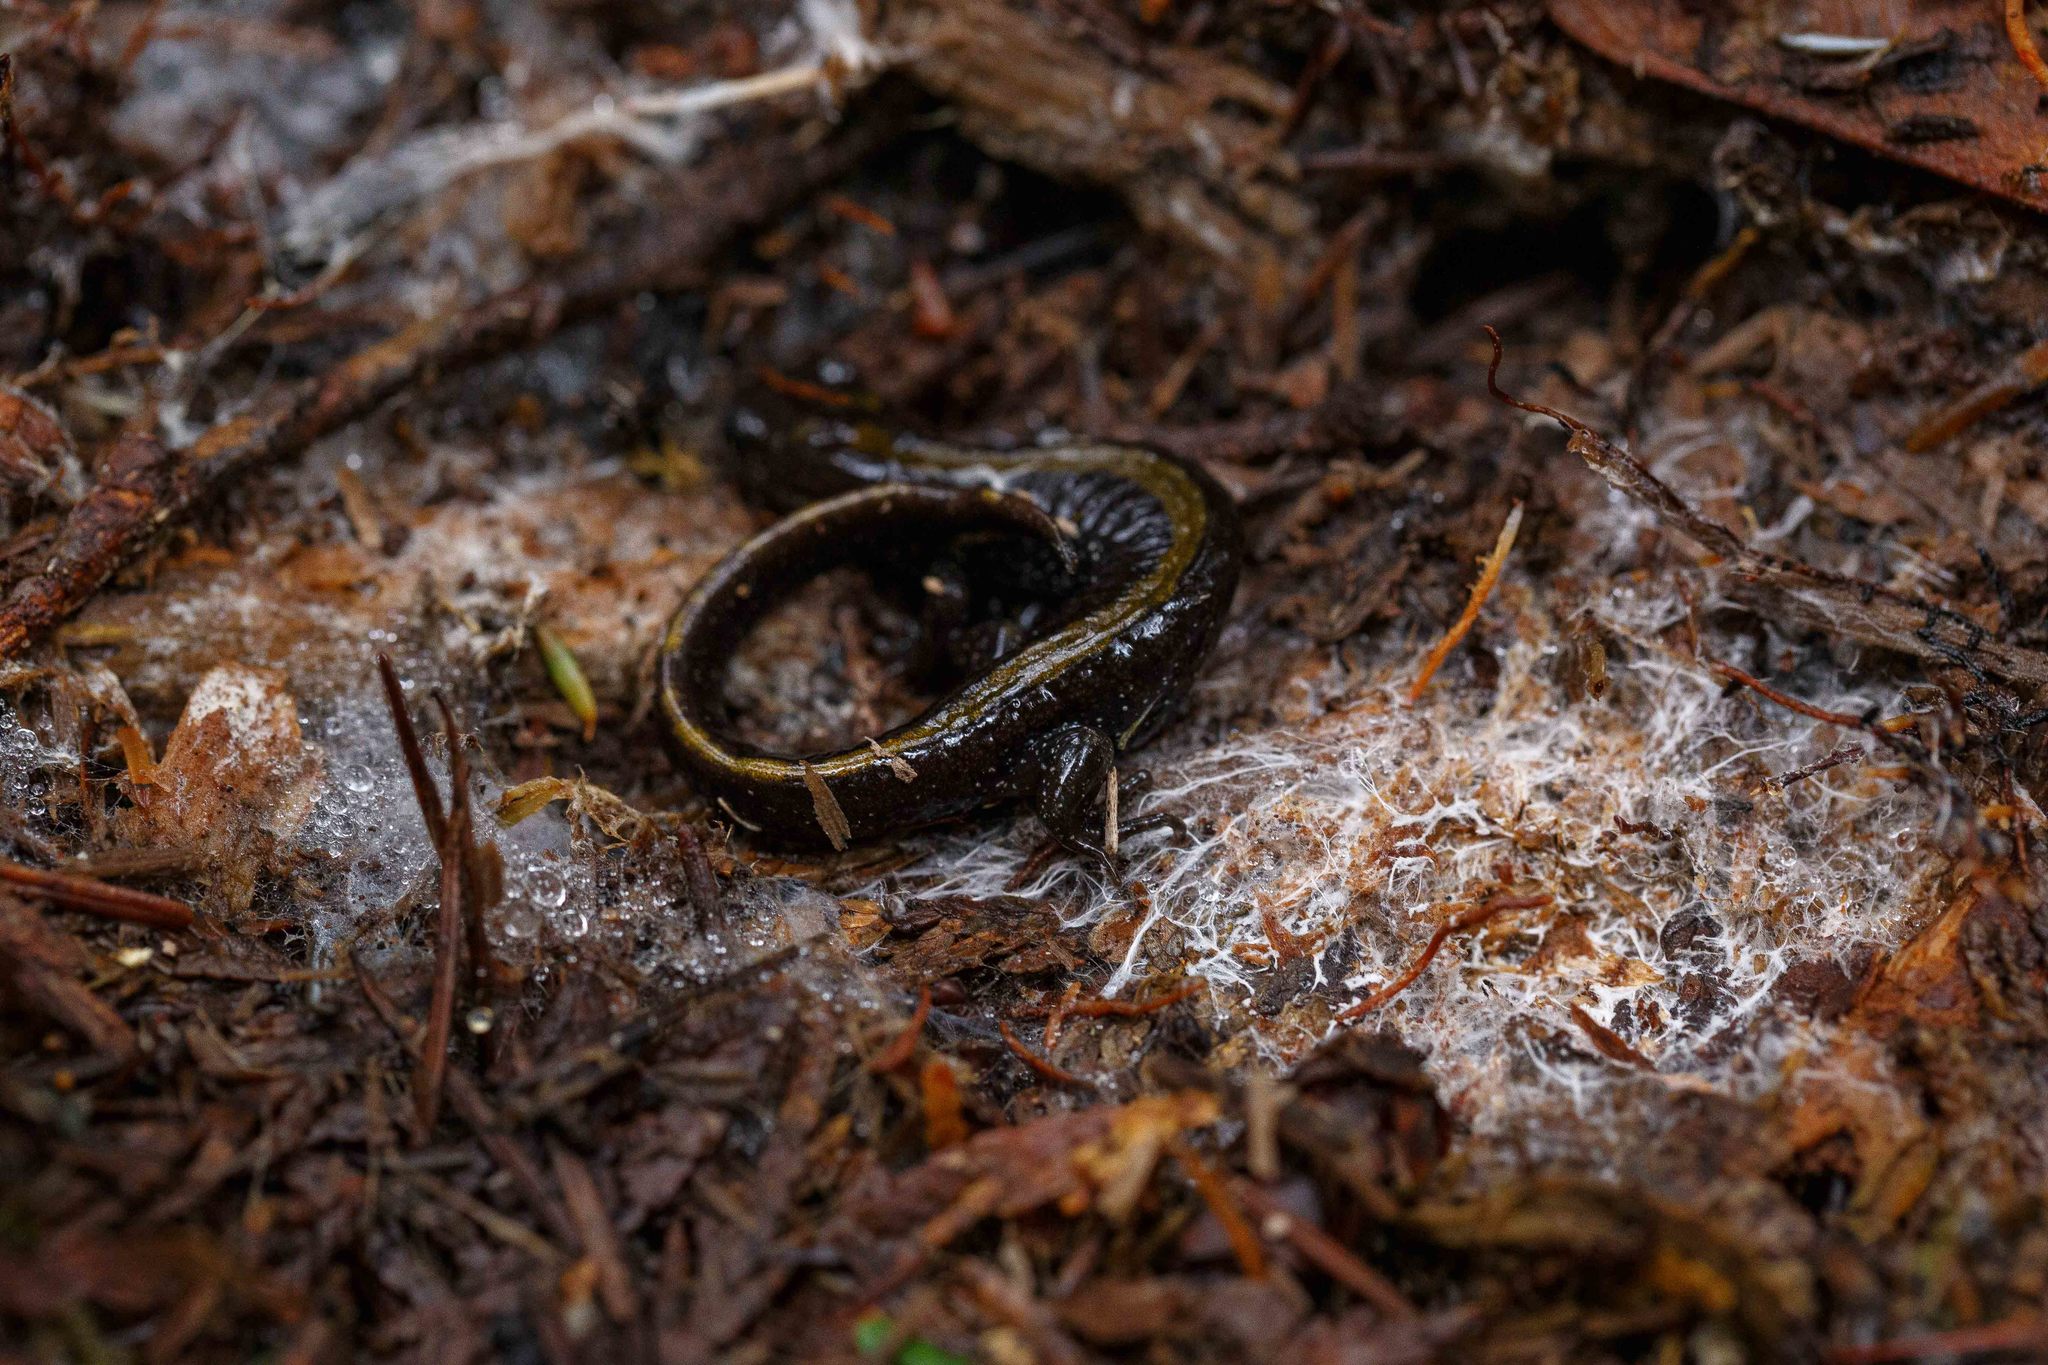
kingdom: Animalia
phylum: Chordata
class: Amphibia
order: Caudata
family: Ambystomatidae
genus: Ambystoma
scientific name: Ambystoma macrodactylum
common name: Long-toed salamander
